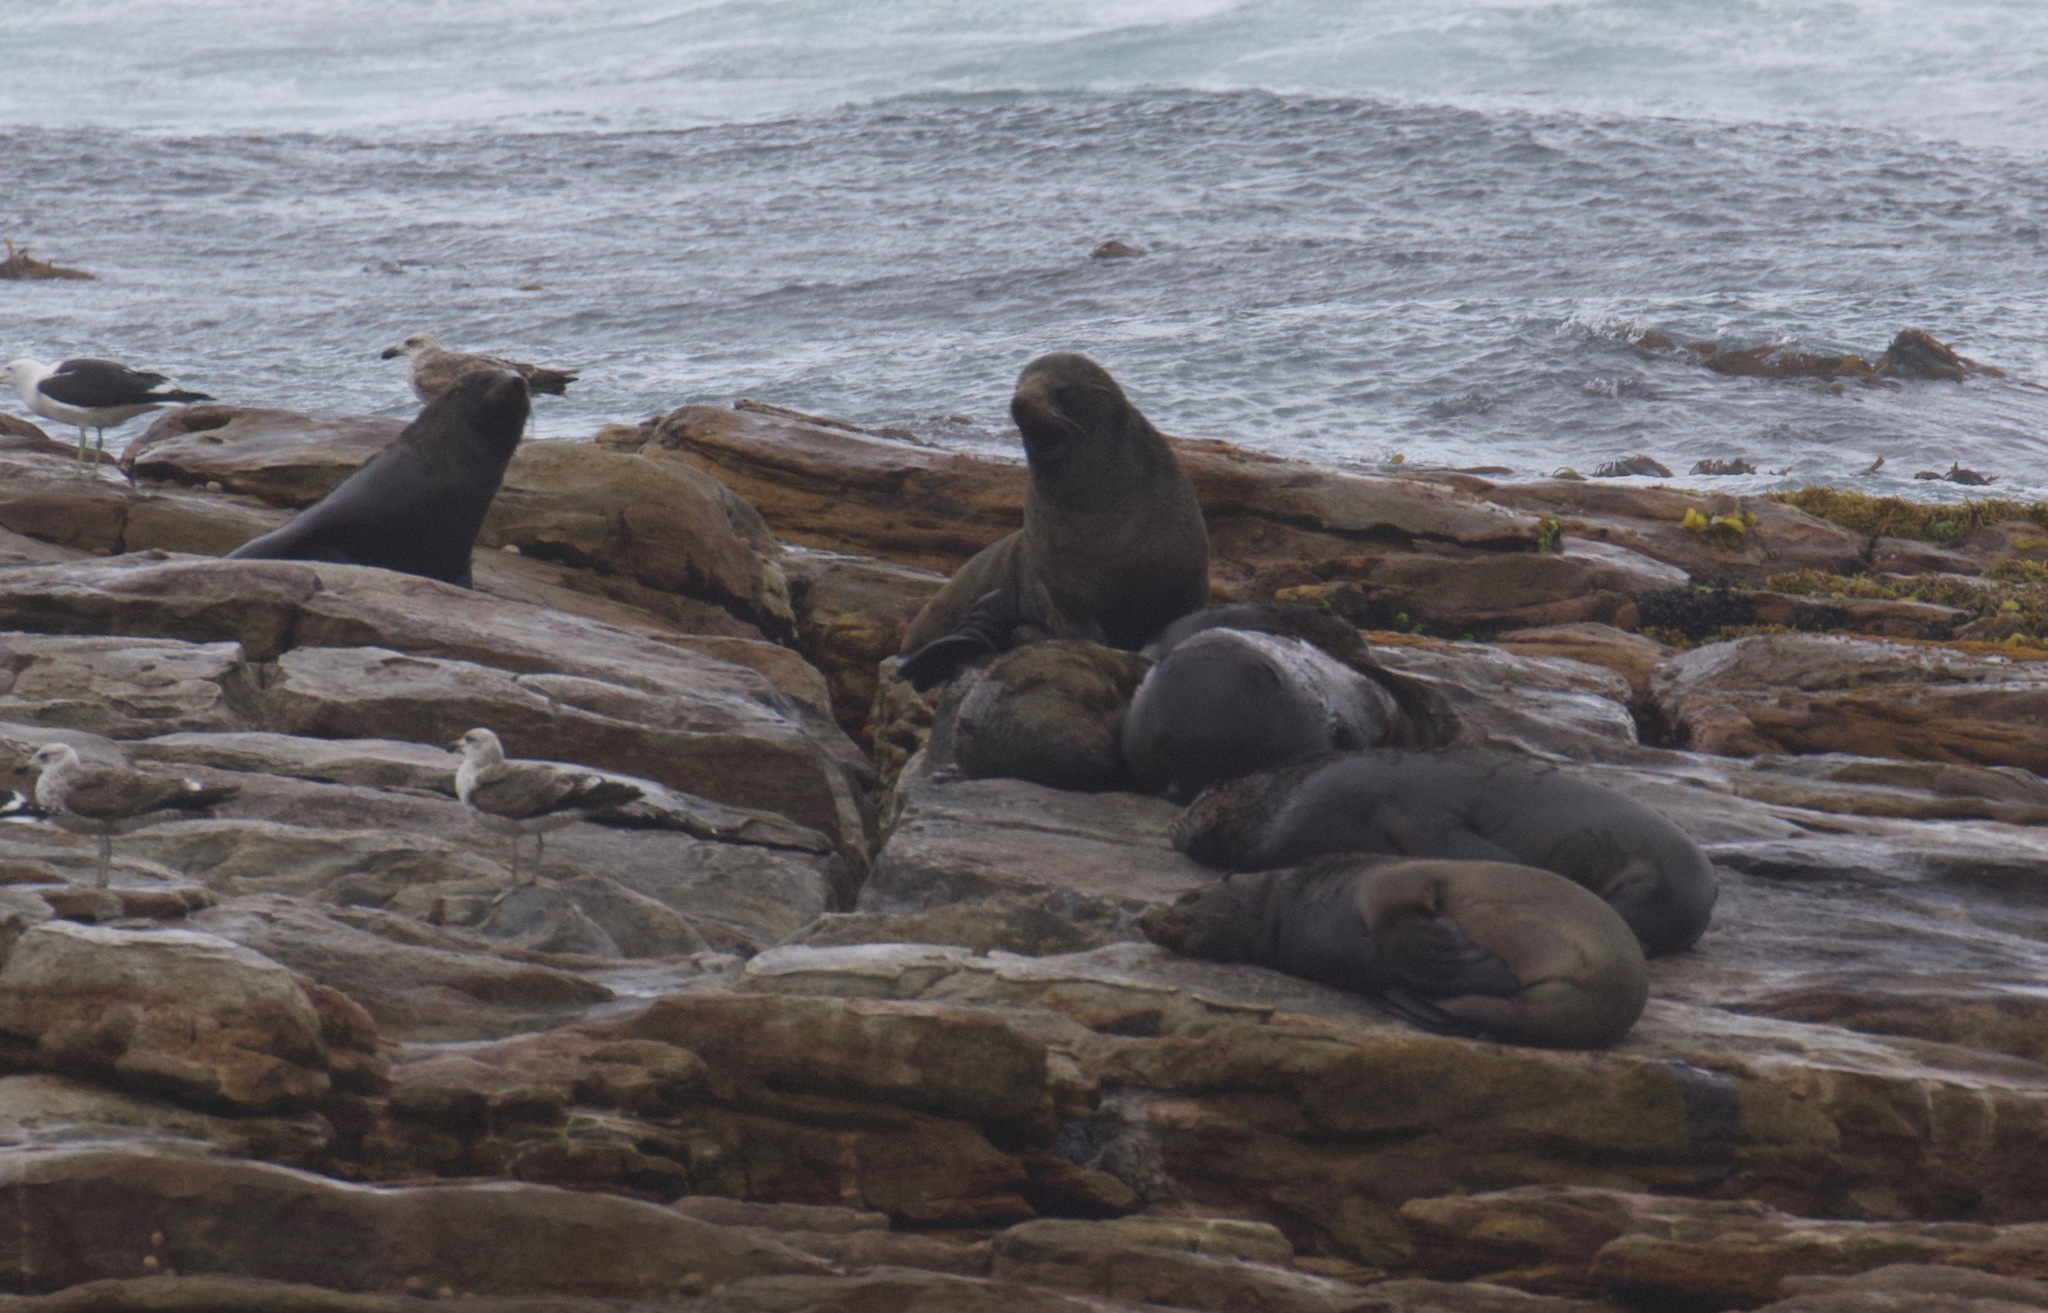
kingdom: Animalia
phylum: Chordata
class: Mammalia
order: Carnivora
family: Otariidae
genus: Arctocephalus
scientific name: Arctocephalus pusillus
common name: Brown fur seal
